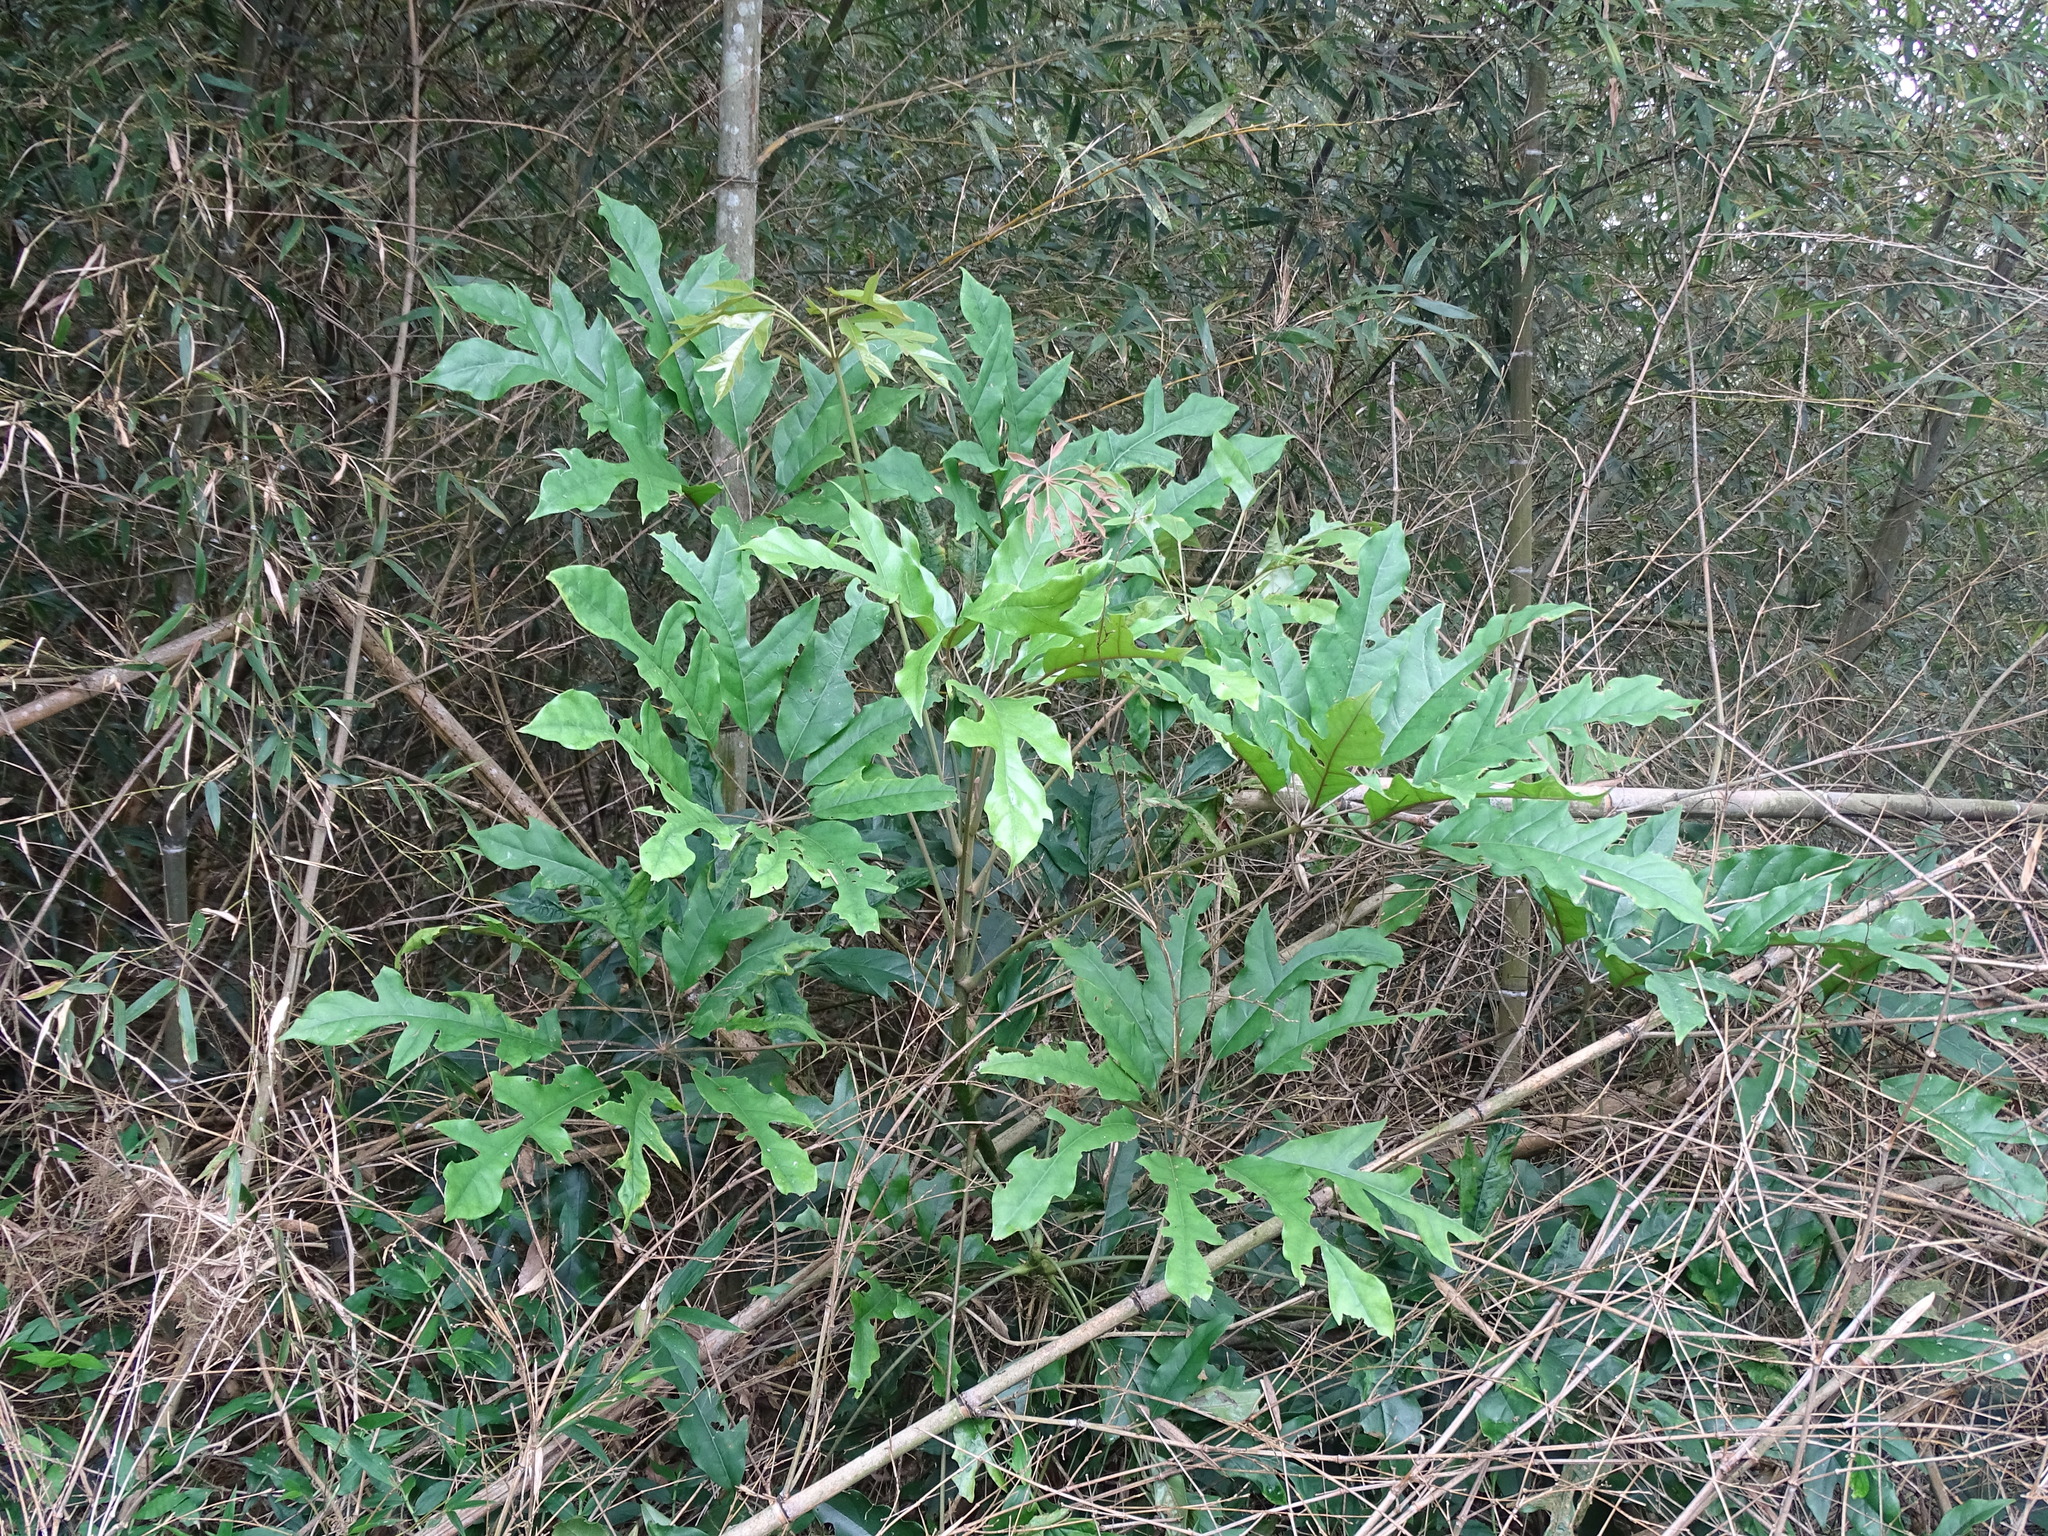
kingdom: Plantae
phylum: Tracheophyta
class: Magnoliopsida
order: Apiales
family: Araliaceae
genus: Heptapleurum
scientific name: Heptapleurum heptaphyllum
